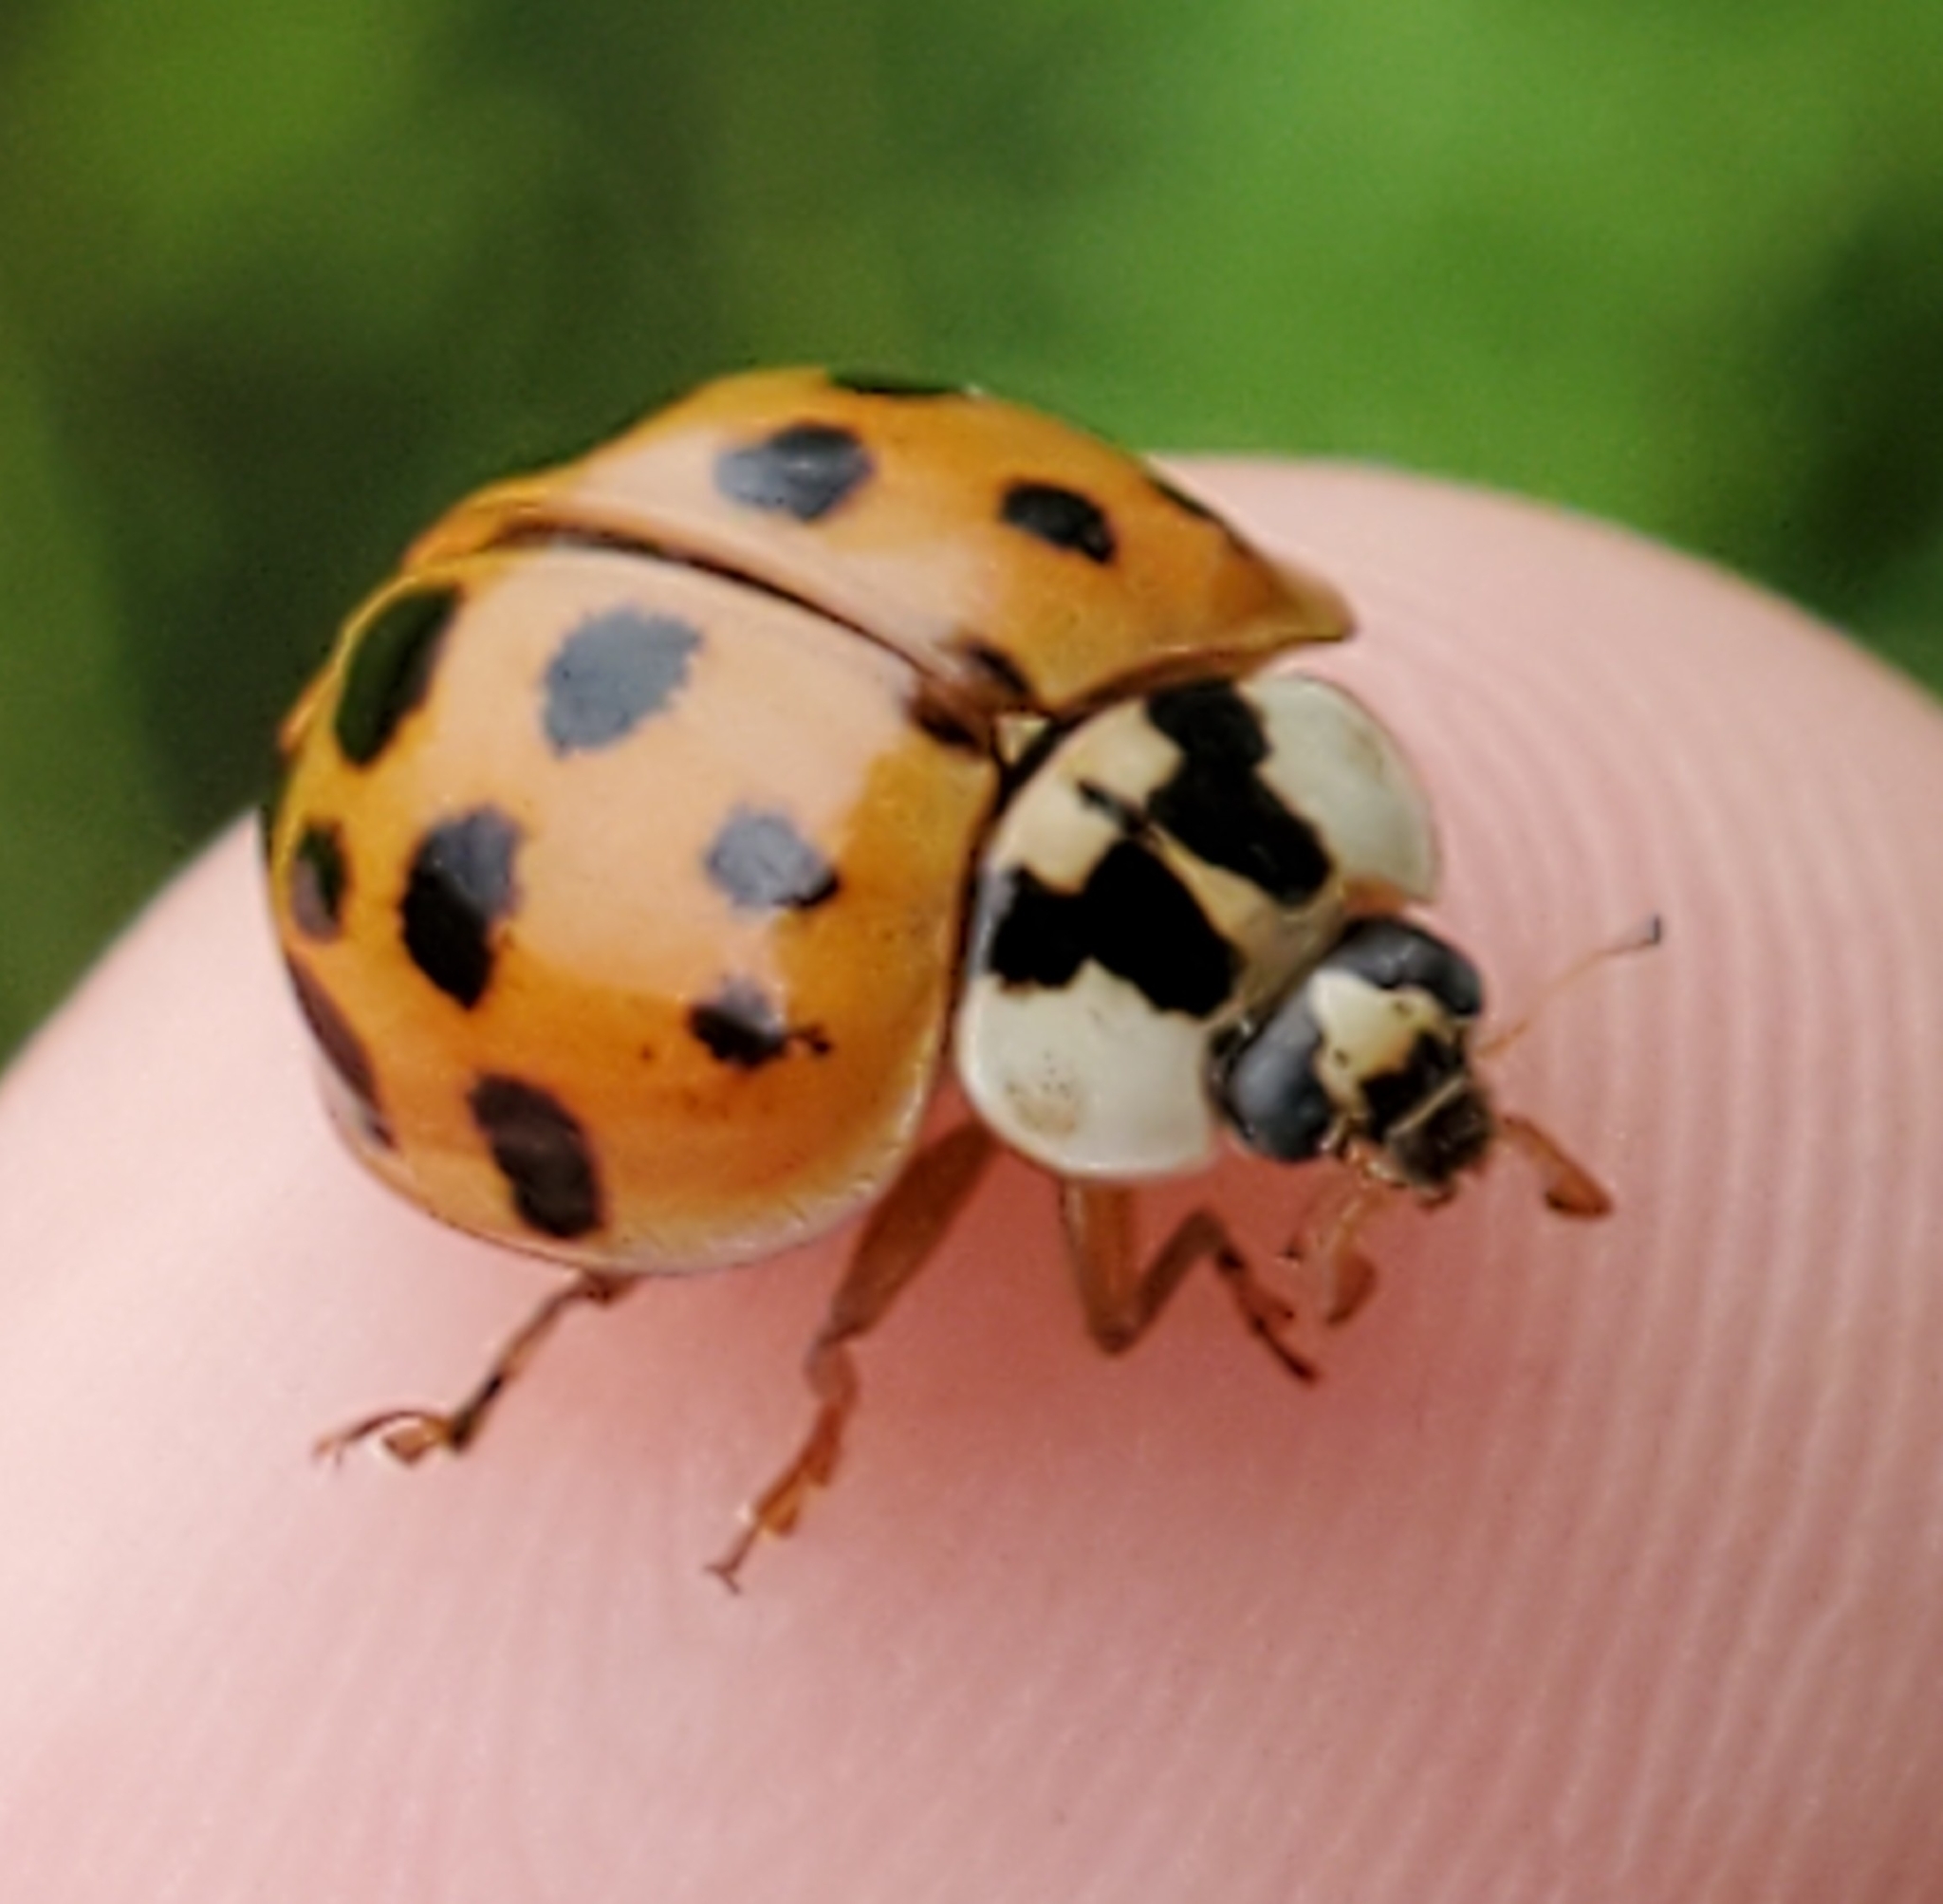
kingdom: Animalia
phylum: Arthropoda
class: Insecta
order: Coleoptera
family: Coccinellidae
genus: Harmonia
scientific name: Harmonia axyridis
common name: Harlequin ladybird
